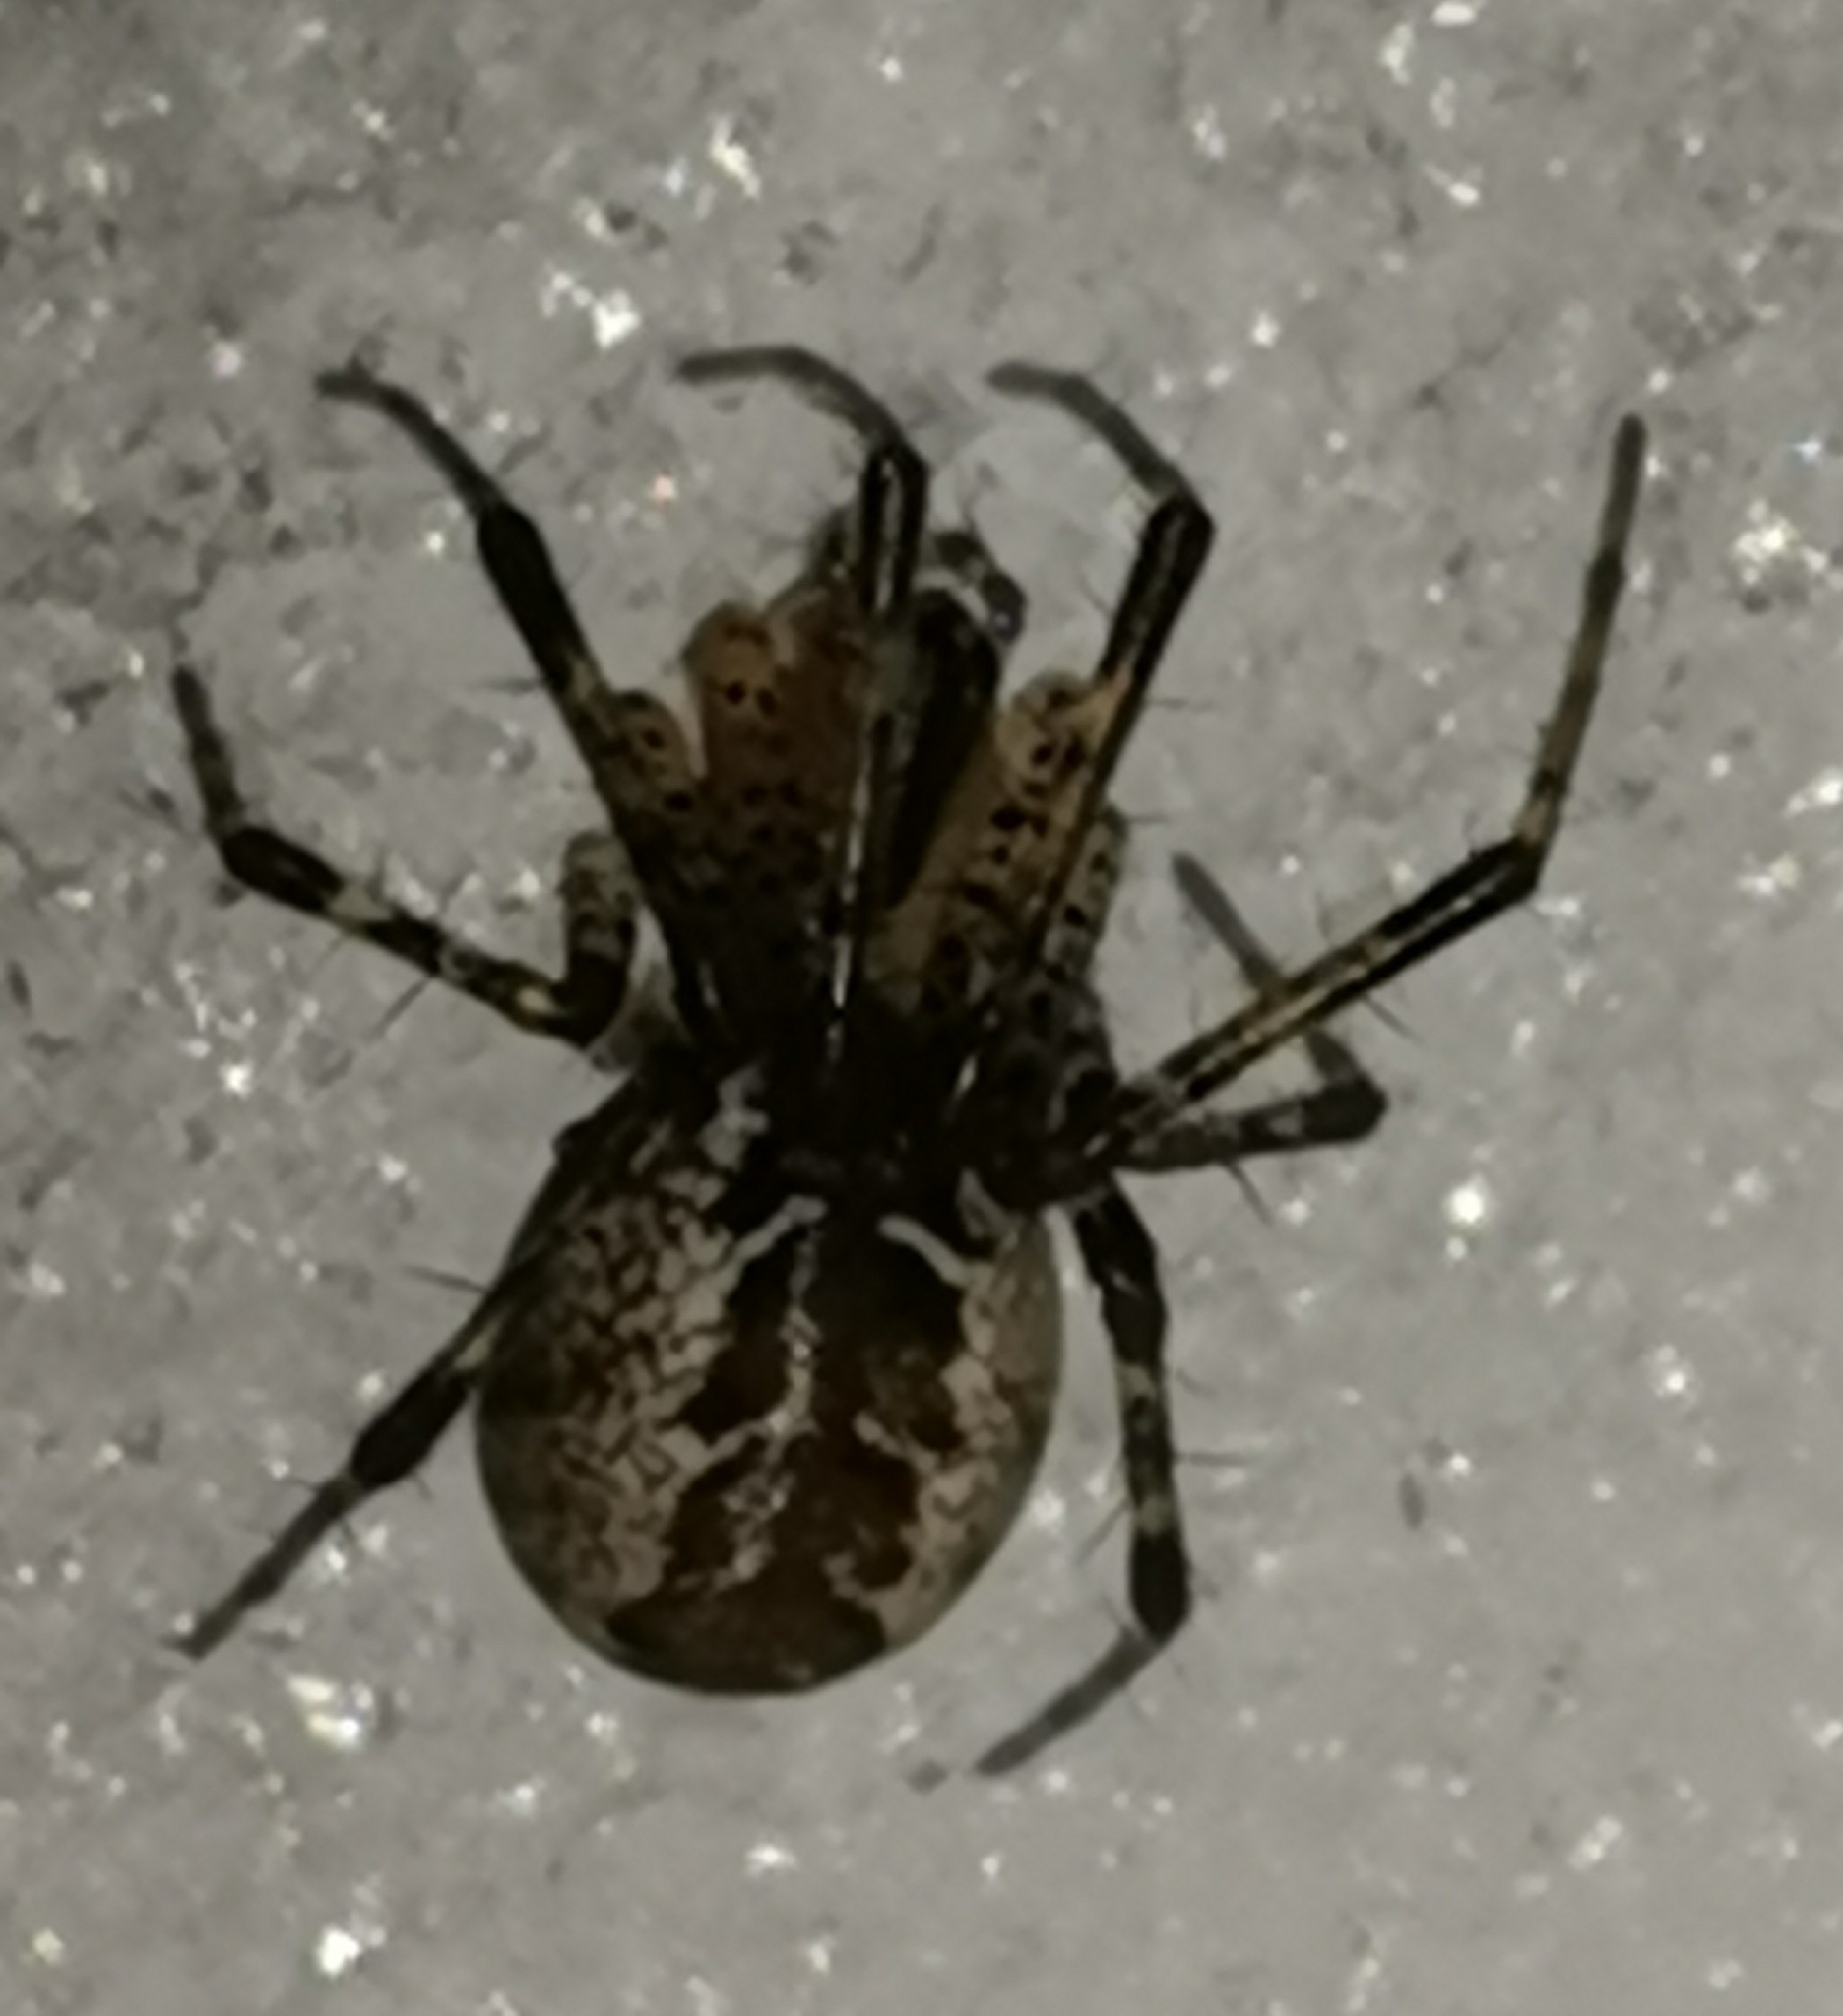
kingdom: Animalia
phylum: Arthropoda
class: Arachnida
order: Araneae
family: Linyphiidae
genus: Pityohyphantes
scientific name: Pityohyphantes phrygianus
